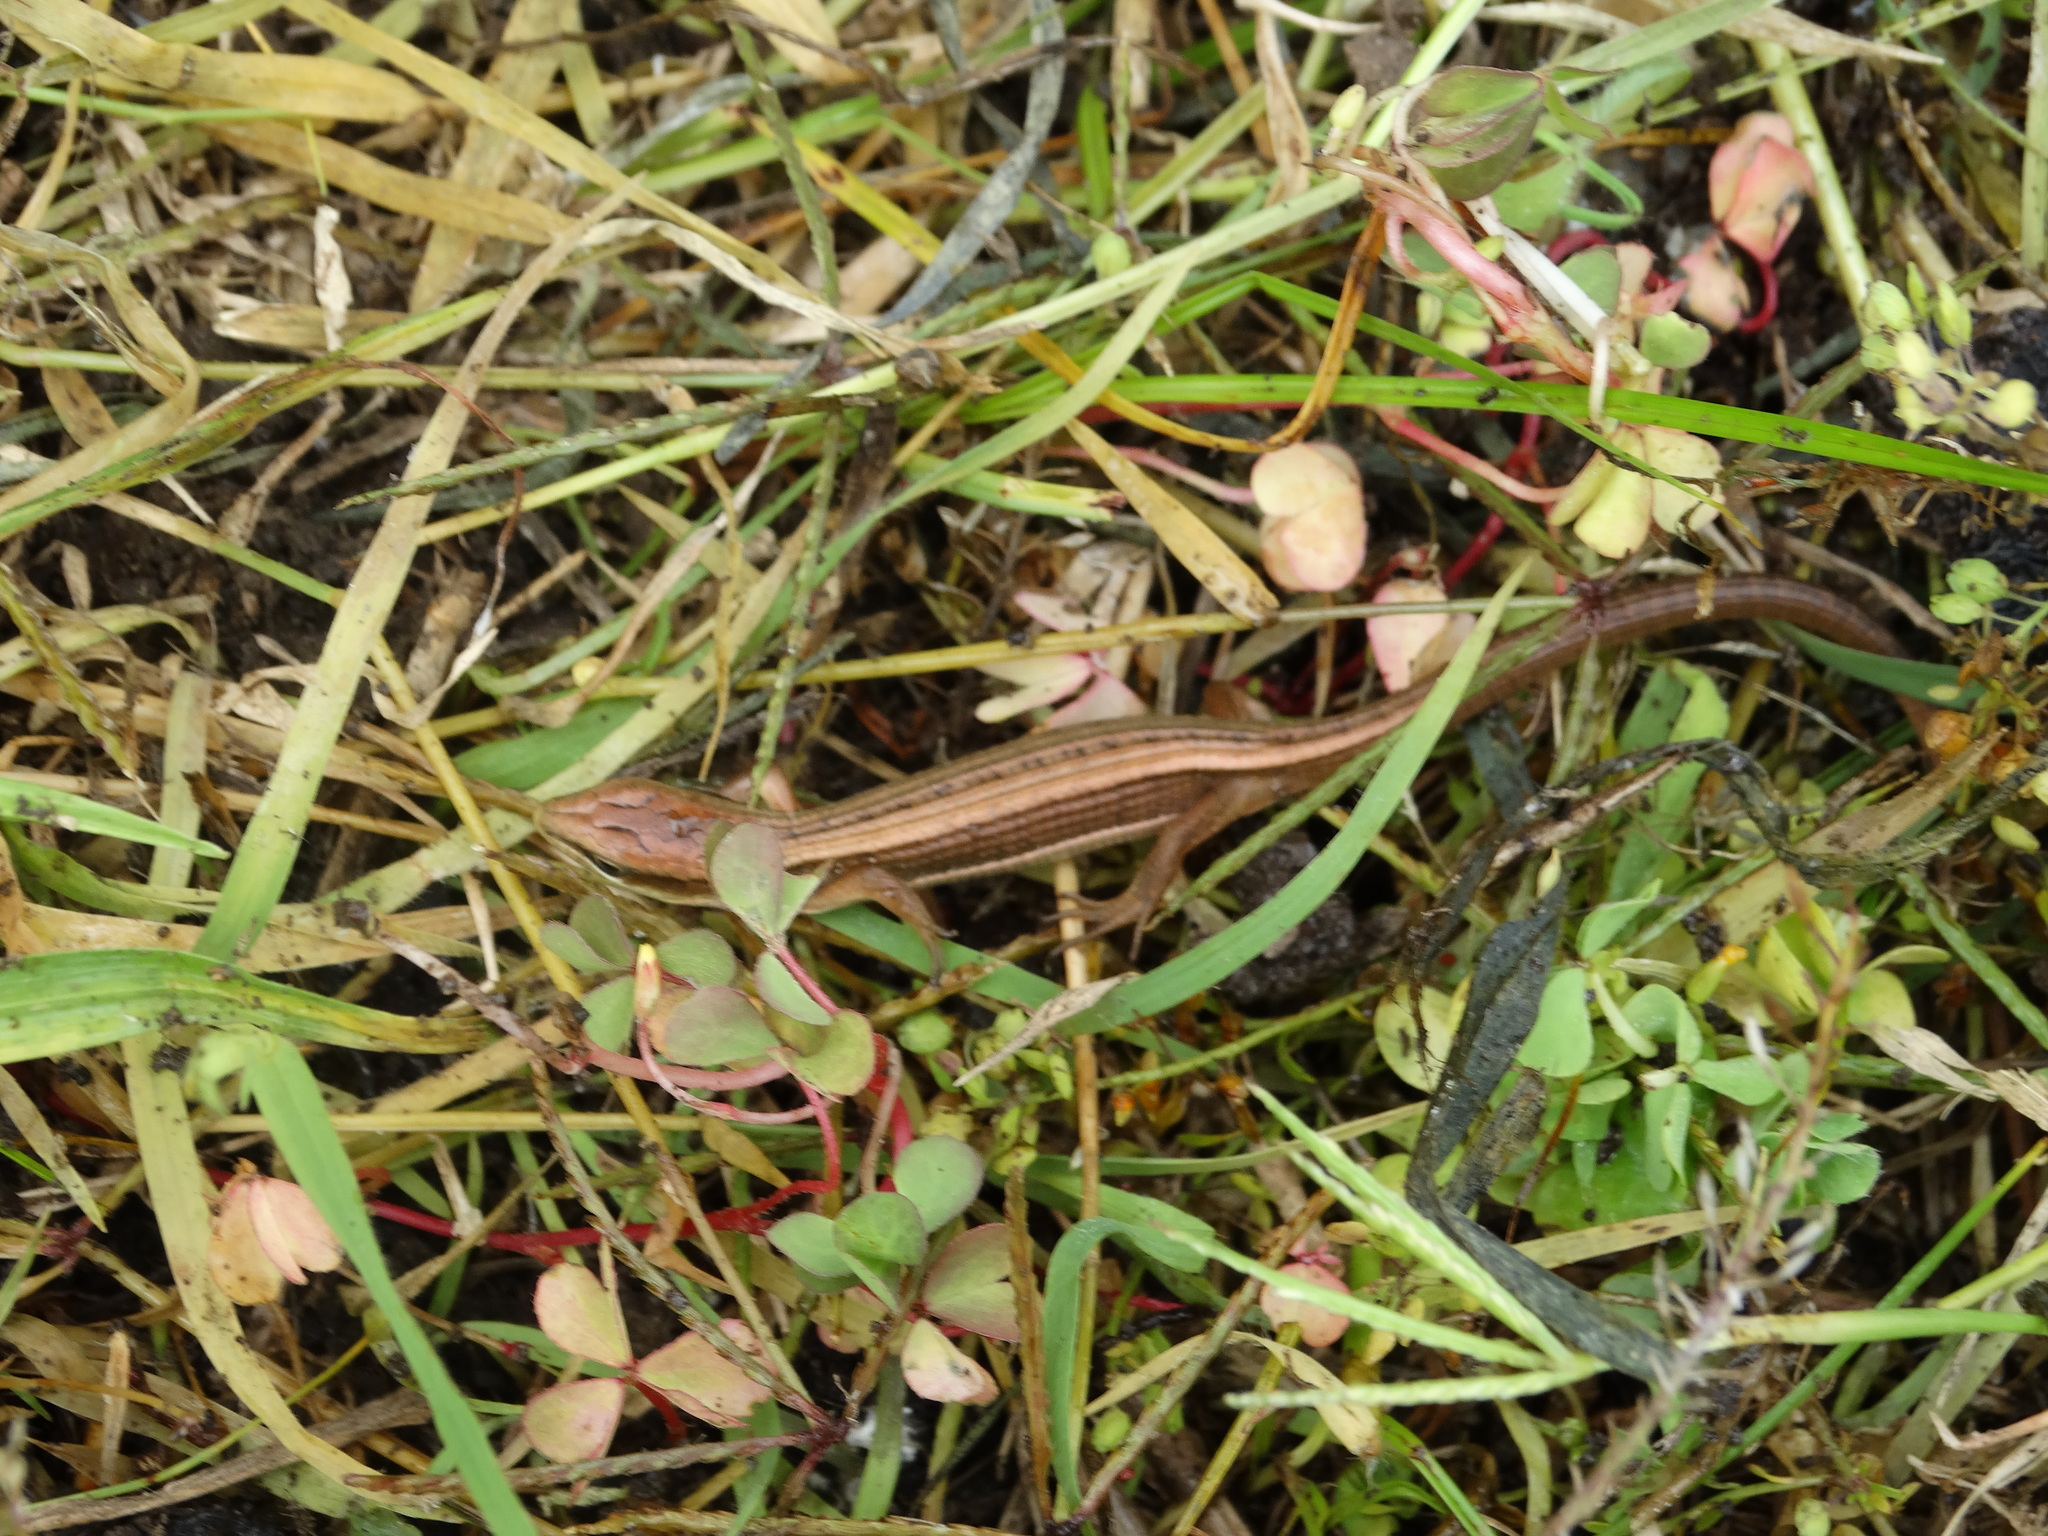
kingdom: Animalia
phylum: Chordata
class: Squamata
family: Anguidae
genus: Barisia
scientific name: Barisia imbricata
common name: Imbricate alligator lizard
